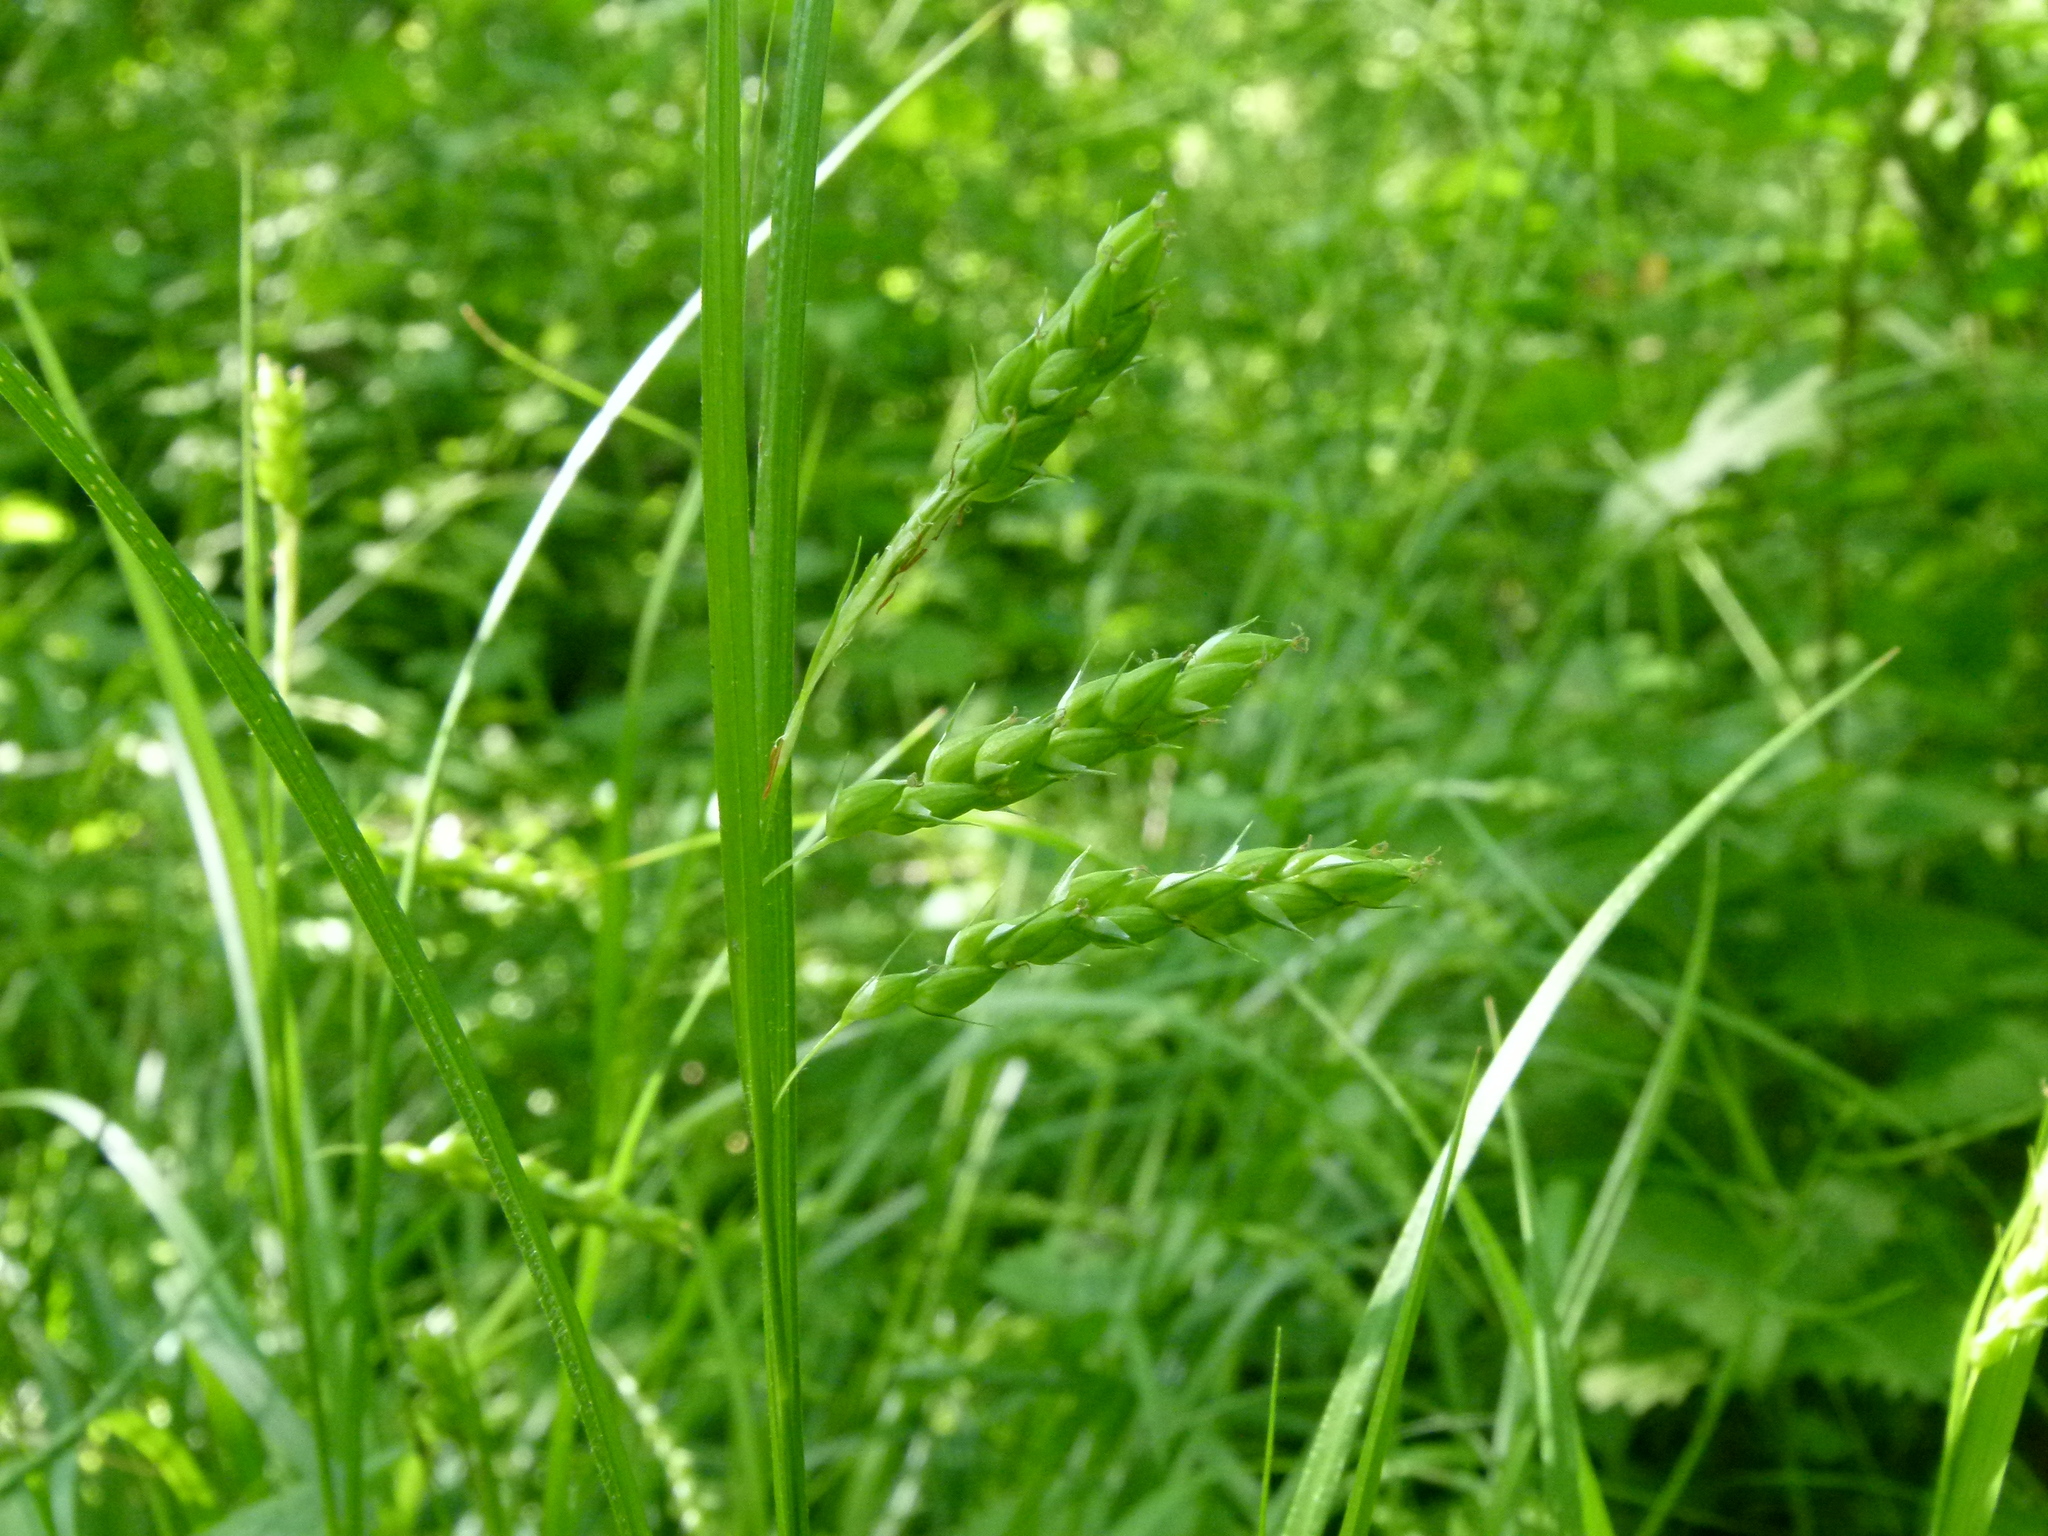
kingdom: Plantae
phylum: Tracheophyta
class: Liliopsida
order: Poales
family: Cyperaceae
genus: Carex
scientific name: Carex davisii
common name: Davis' sedge
